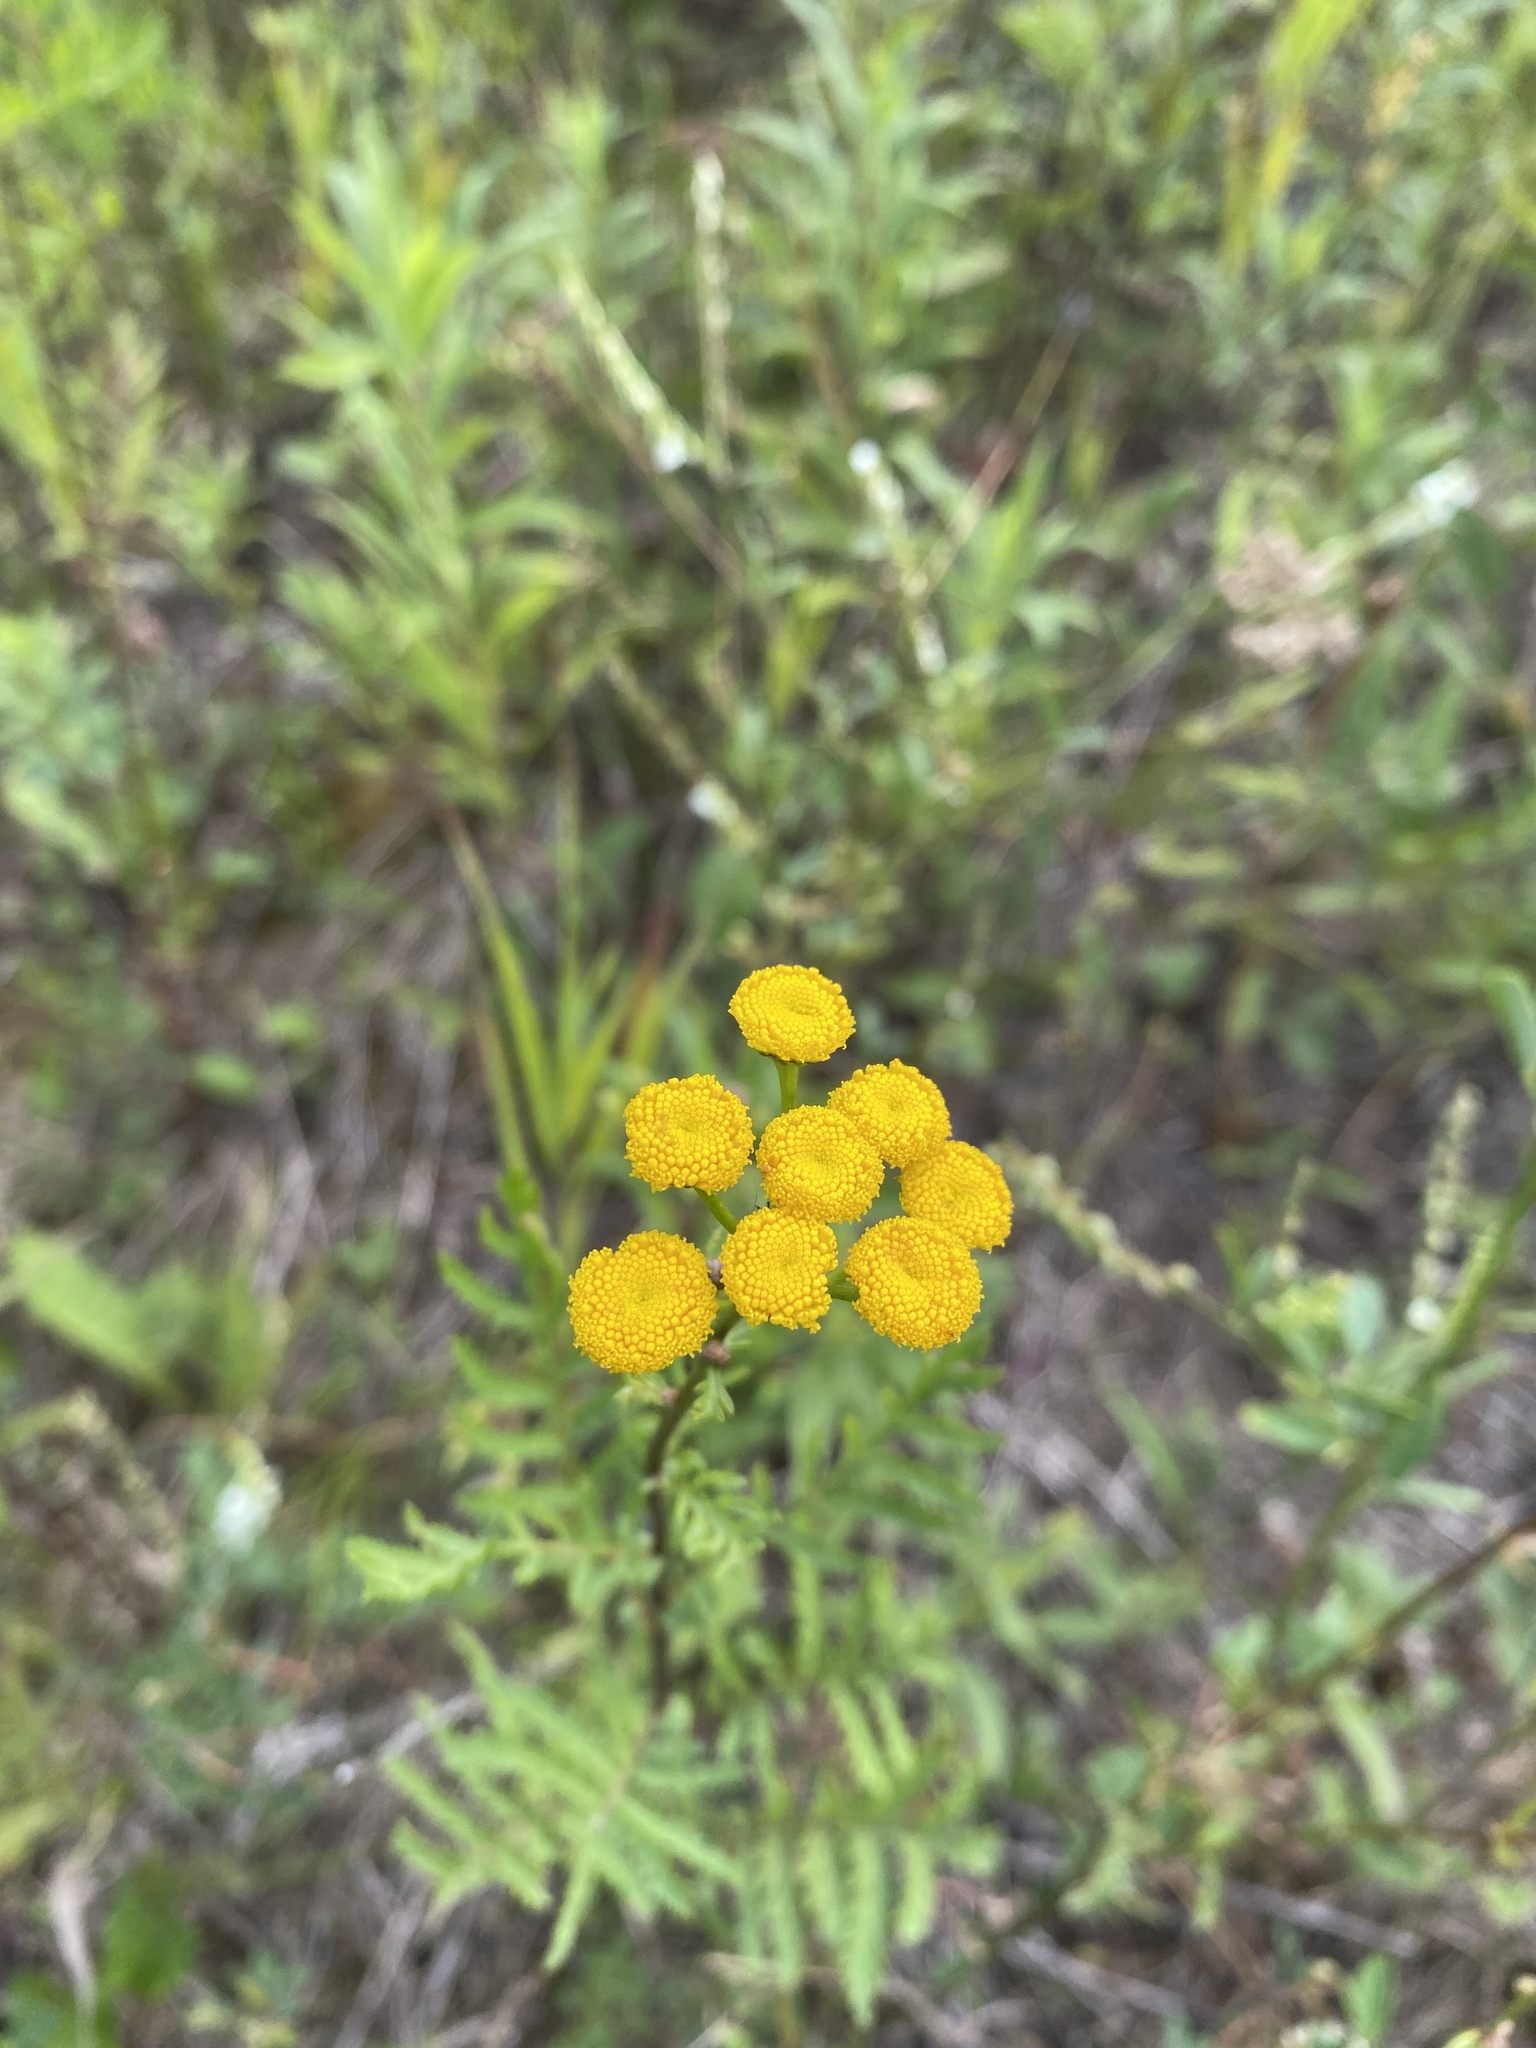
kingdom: Plantae
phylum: Tracheophyta
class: Magnoliopsida
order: Asterales
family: Asteraceae
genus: Tanacetum
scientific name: Tanacetum vulgare
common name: Common tansy
